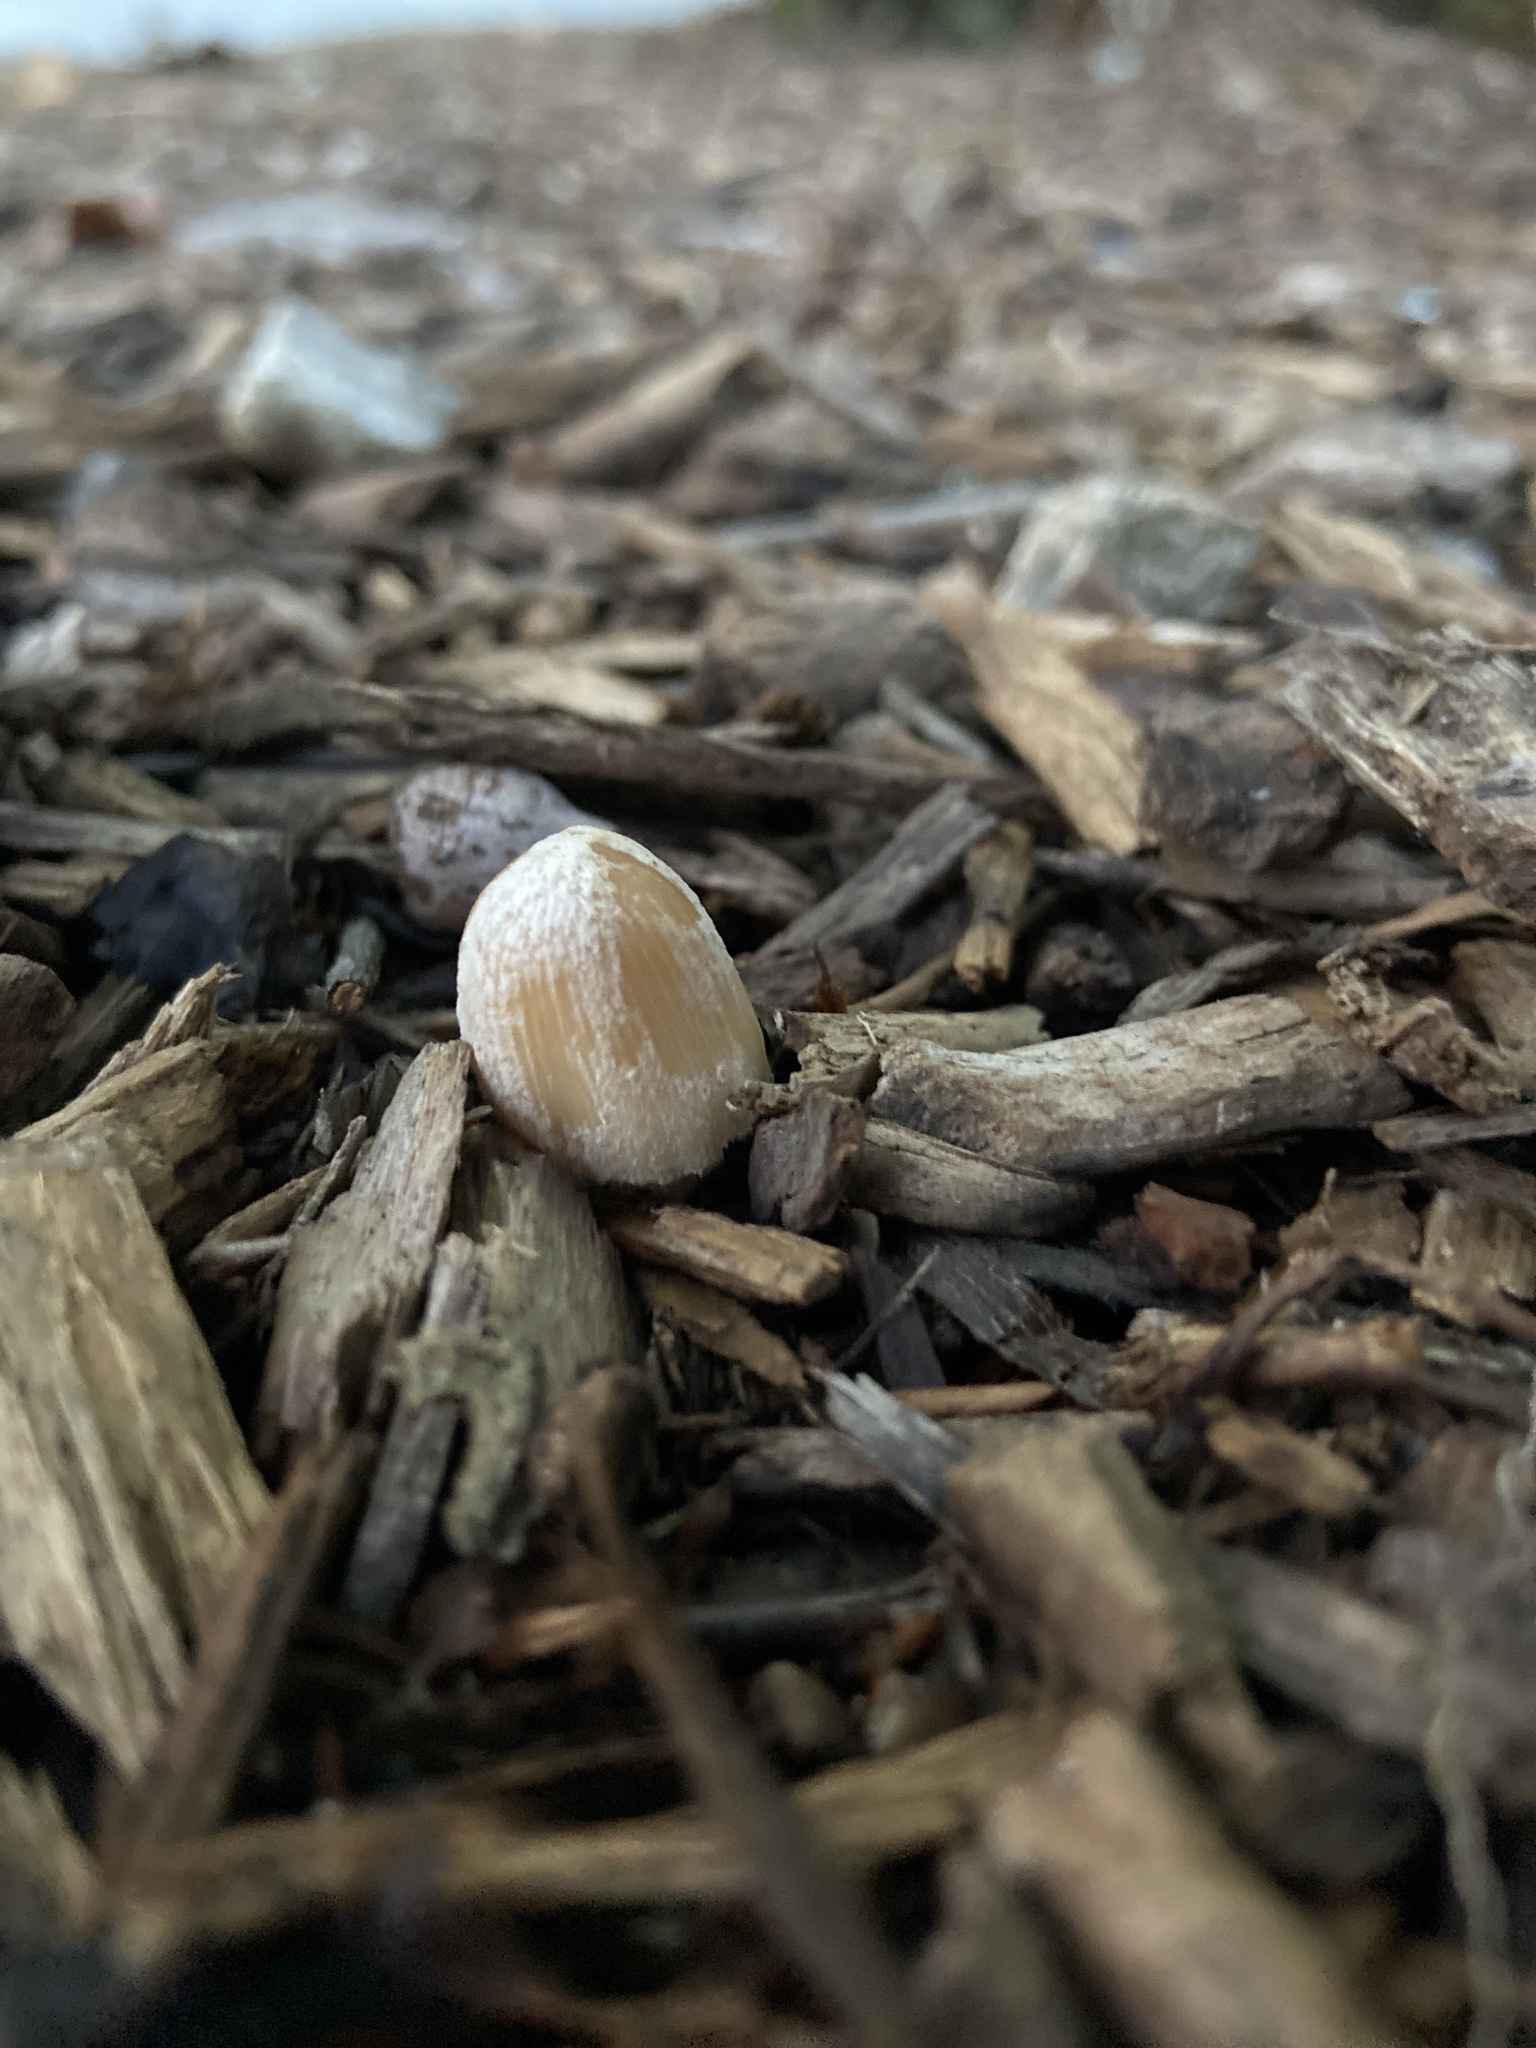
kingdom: Fungi
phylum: Basidiomycota
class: Agaricomycetes
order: Agaricales
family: Psathyrellaceae
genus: Coprinellus
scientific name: Coprinellus flocculosus
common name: Flocculose inkcap
